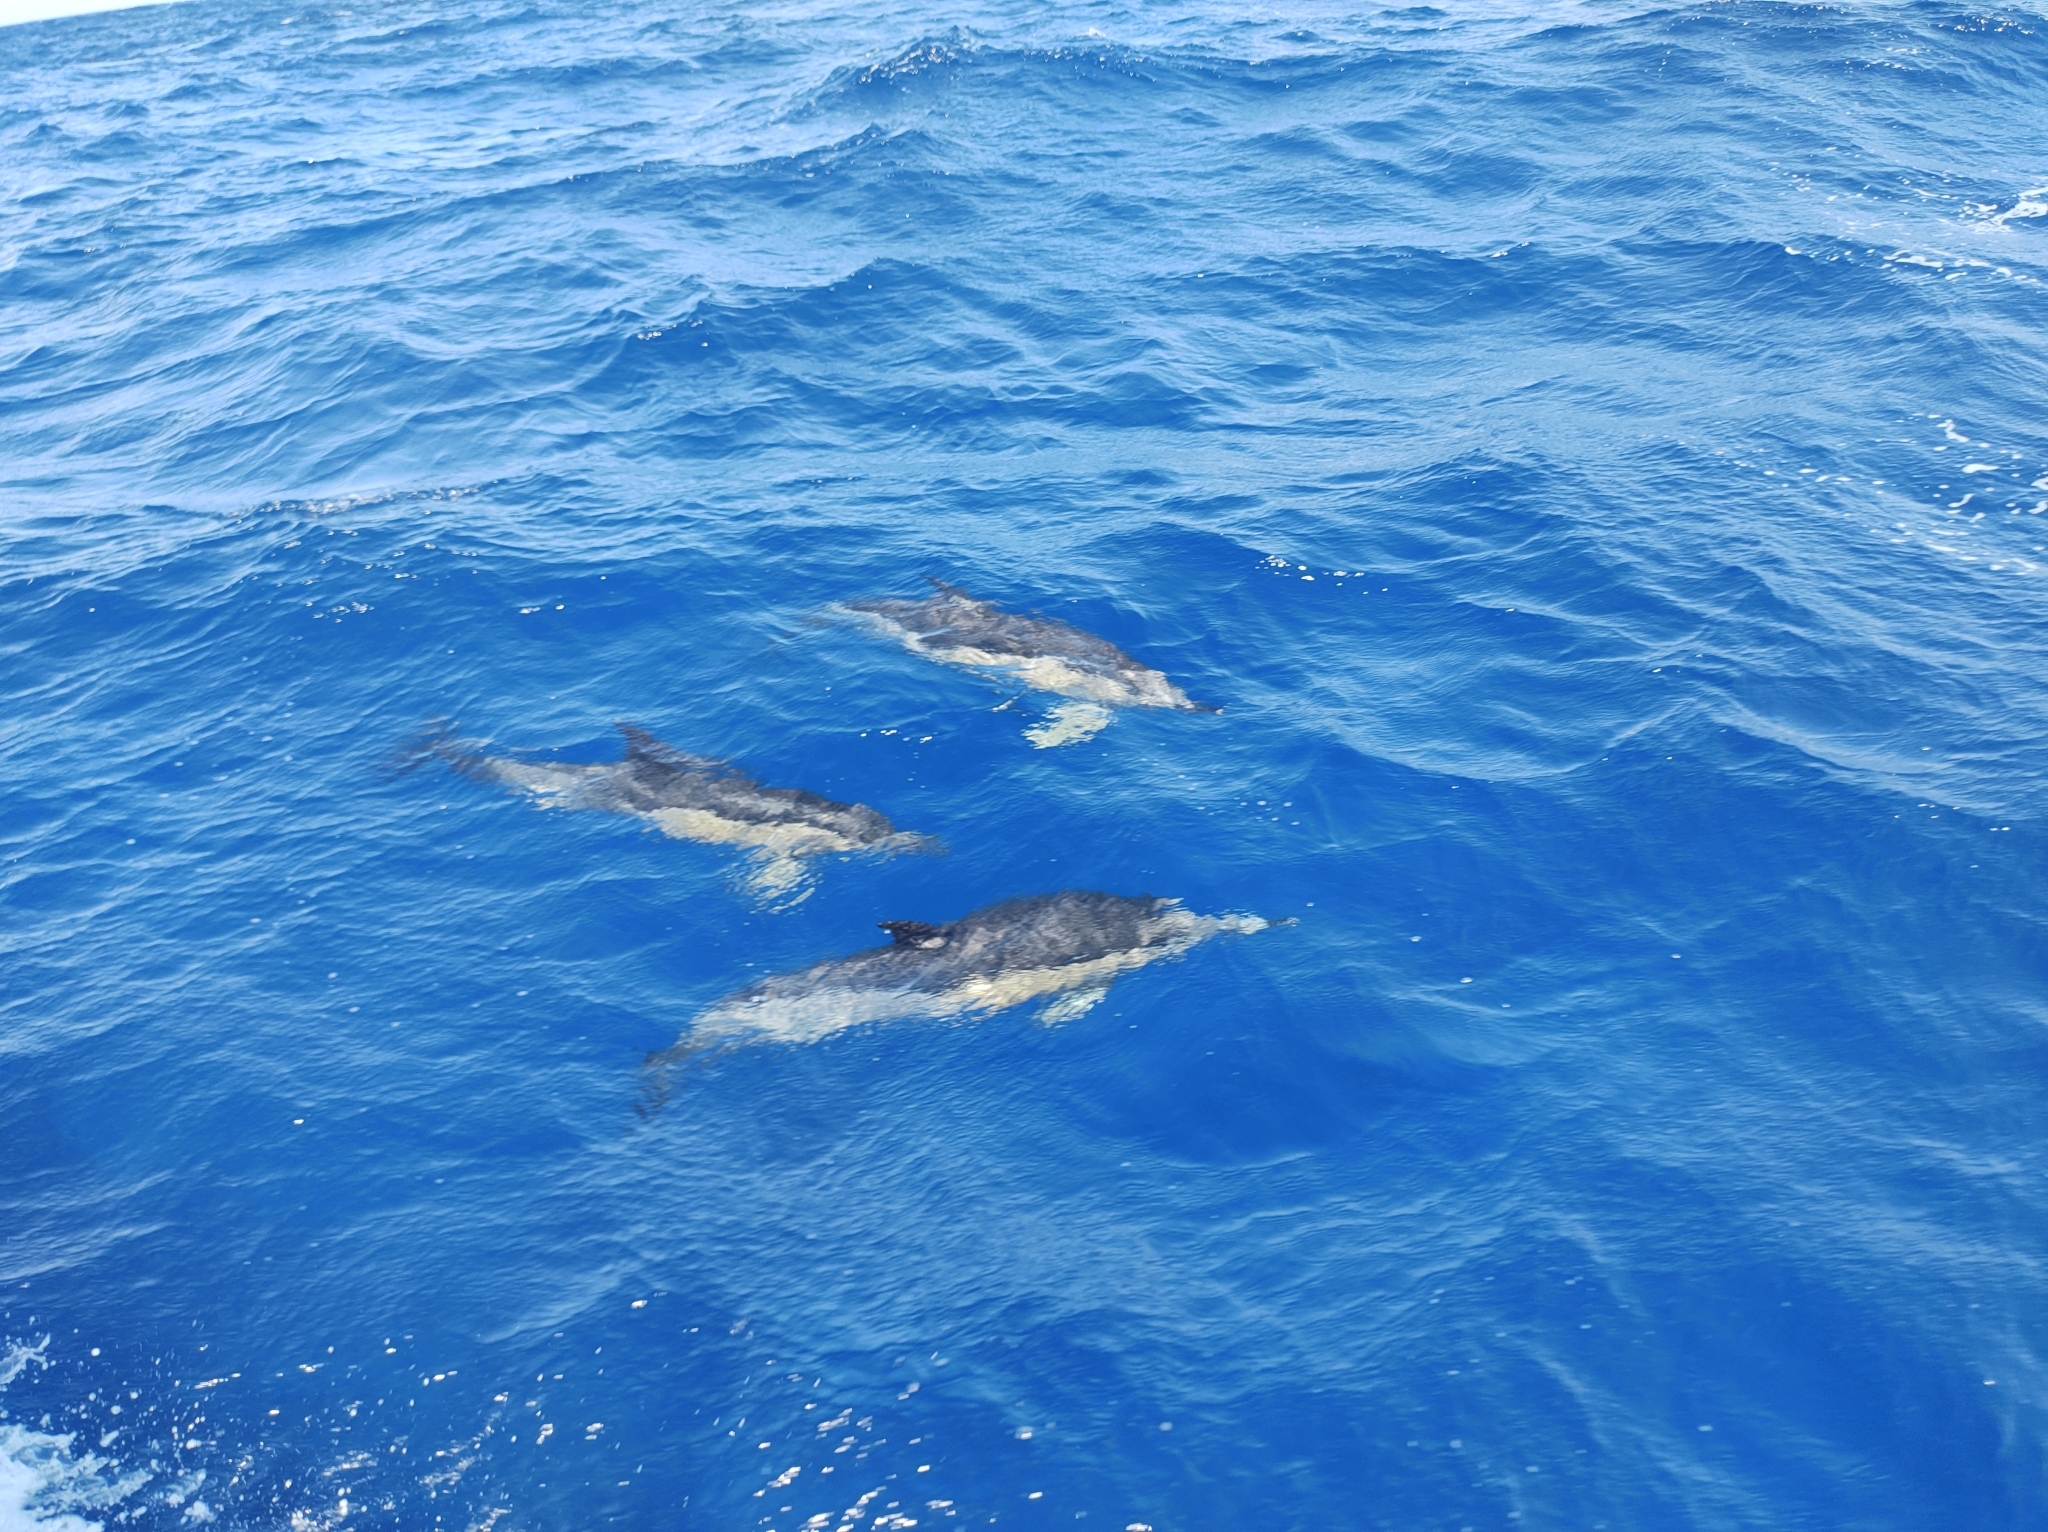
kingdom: Animalia
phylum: Chordata
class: Mammalia
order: Cetacea
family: Delphinidae
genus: Delphinus
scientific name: Delphinus delphis
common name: Common dolphin
